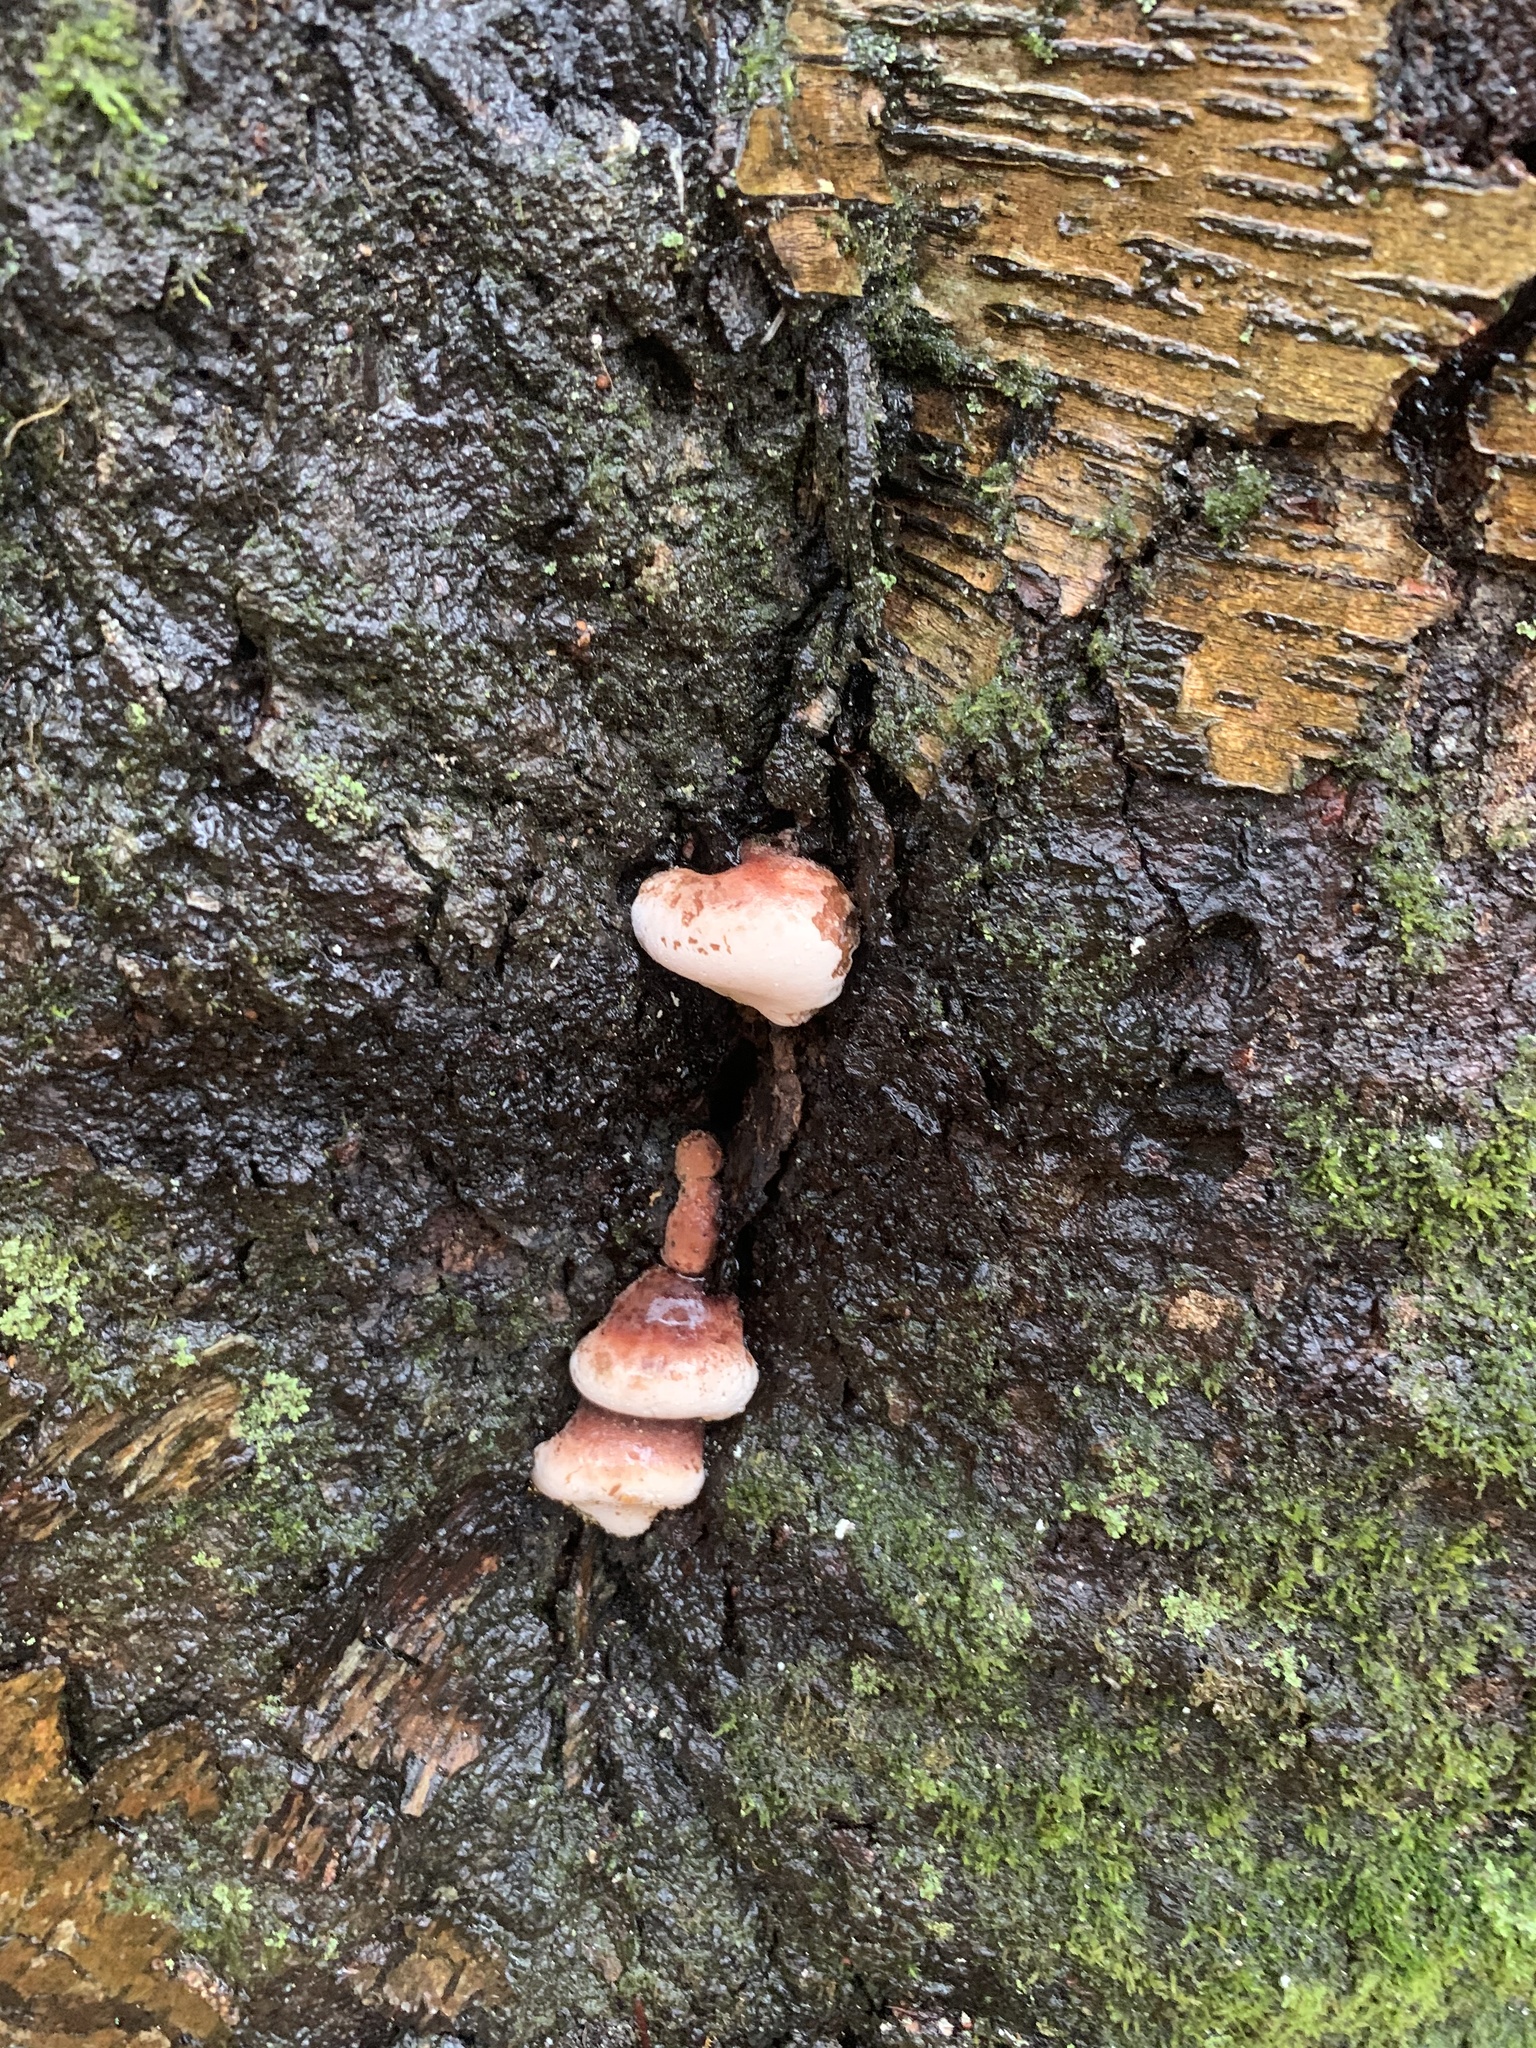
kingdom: Fungi
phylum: Basidiomycota
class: Agaricomycetes
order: Polyporales
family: Ischnodermataceae
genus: Ischnoderma
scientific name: Ischnoderma resinosum
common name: Resinous polypore
